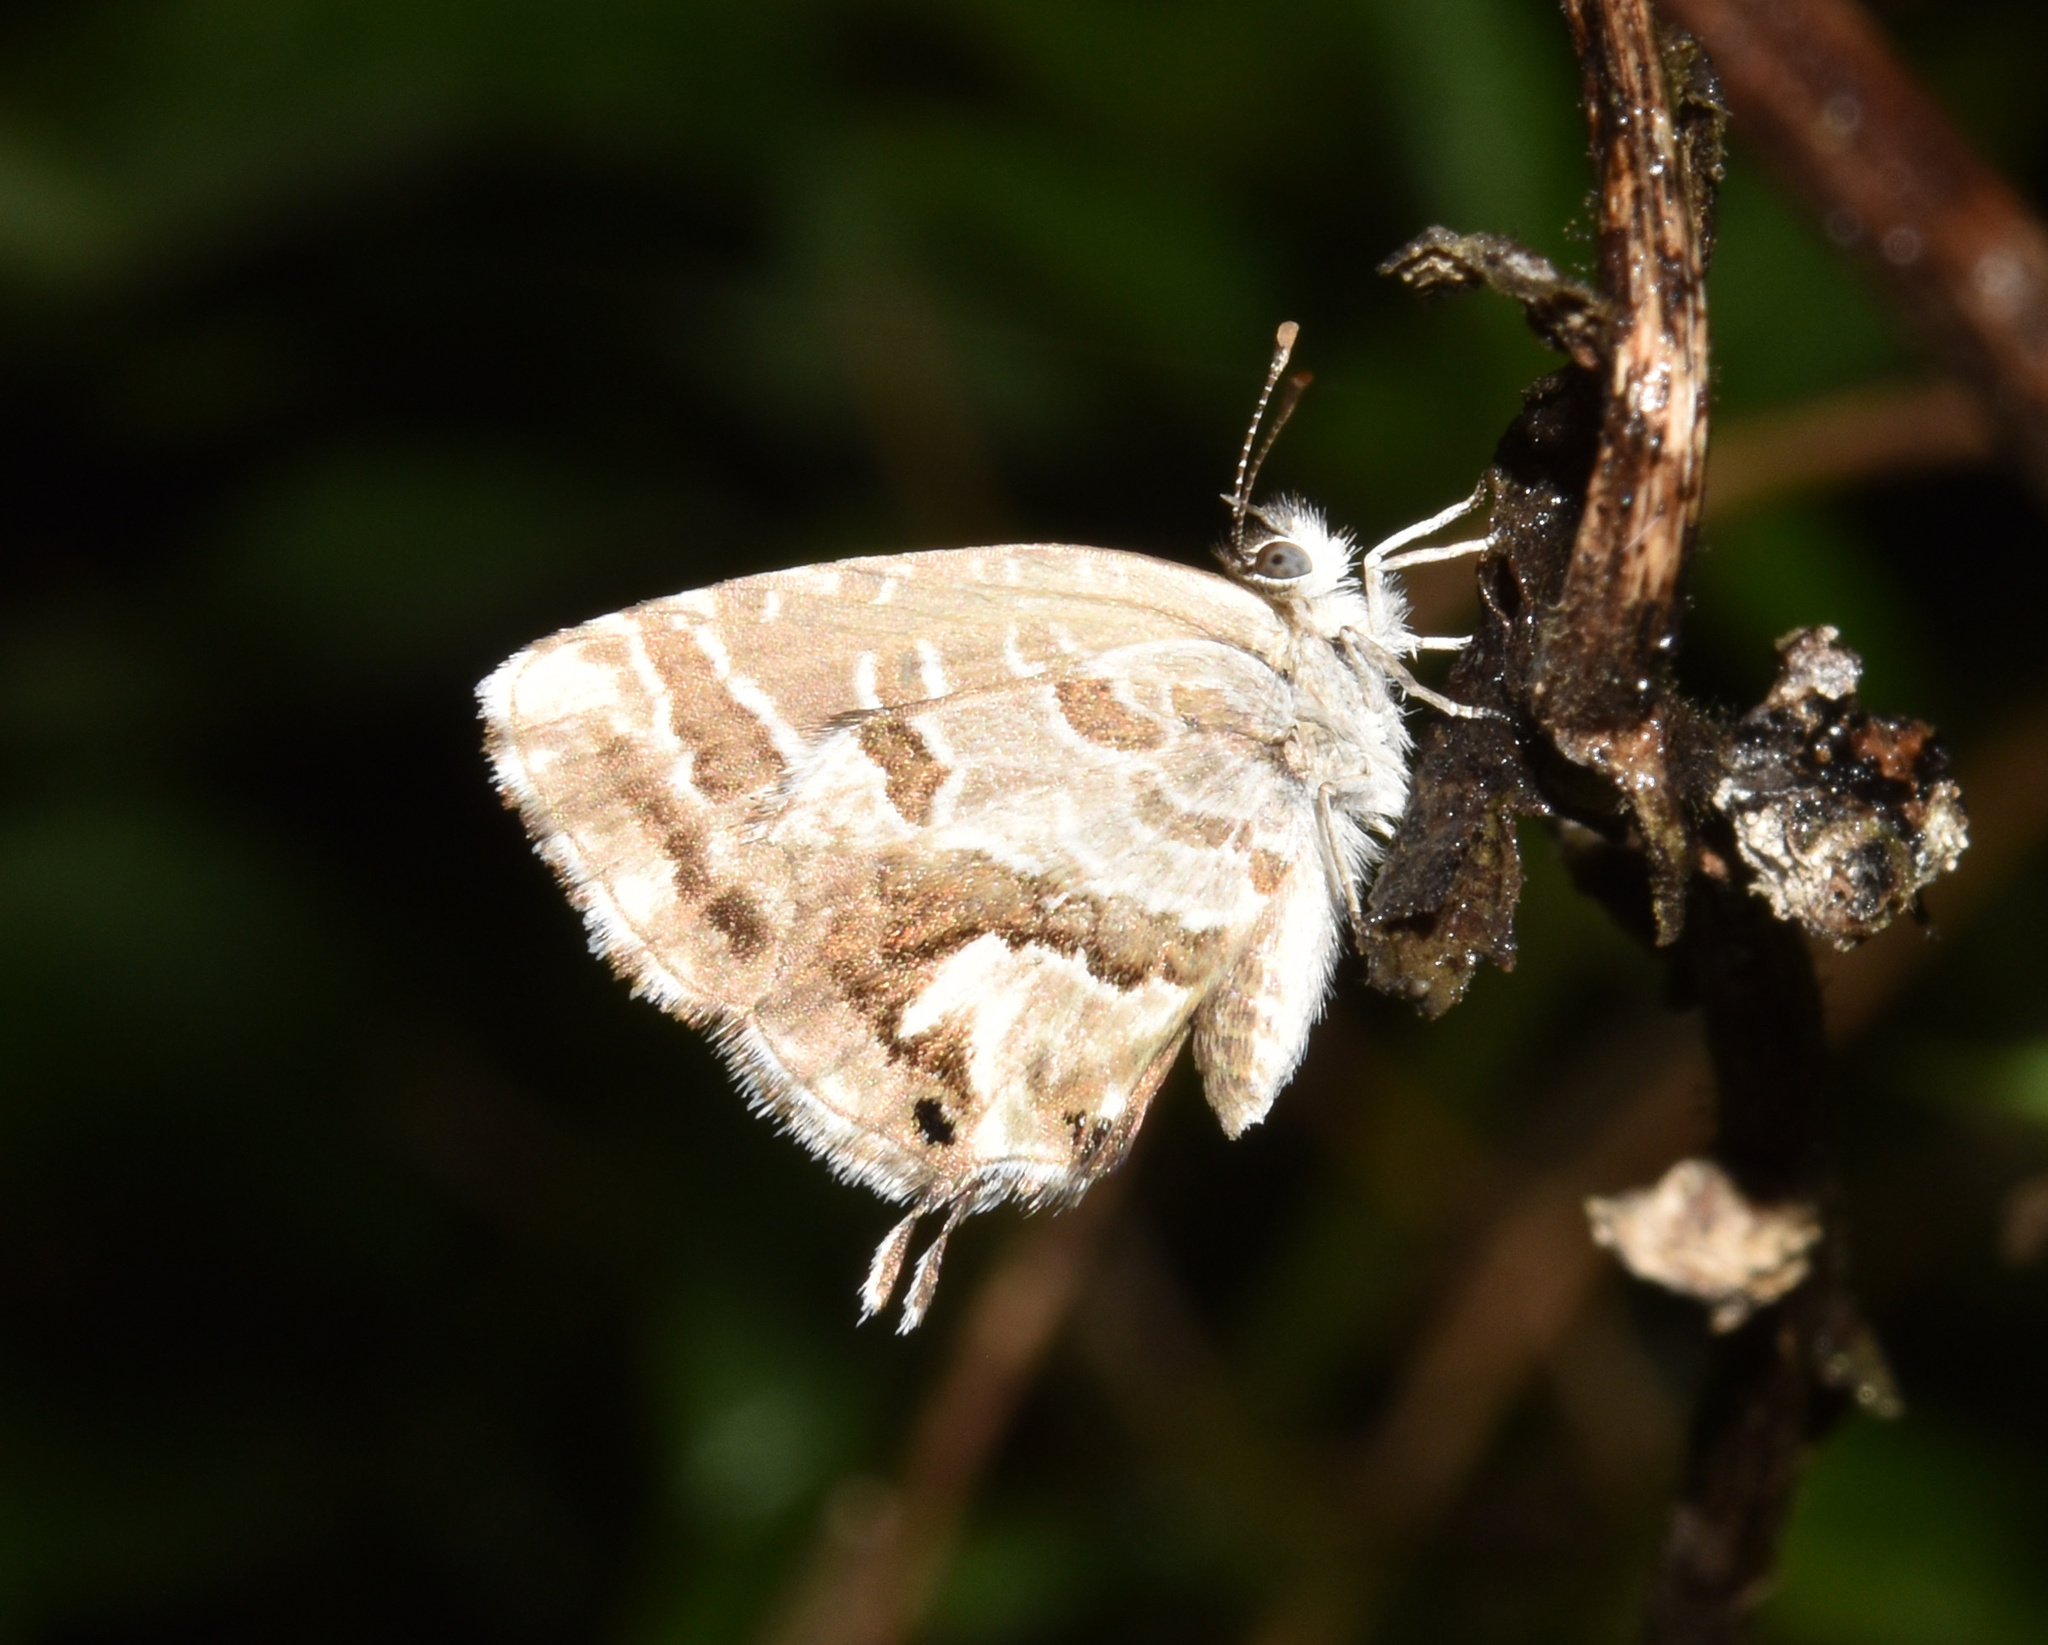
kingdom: Animalia
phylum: Arthropoda
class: Insecta
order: Lepidoptera
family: Lycaenidae
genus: Cacyreus
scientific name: Cacyreus marshalli
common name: Geranium bronze
